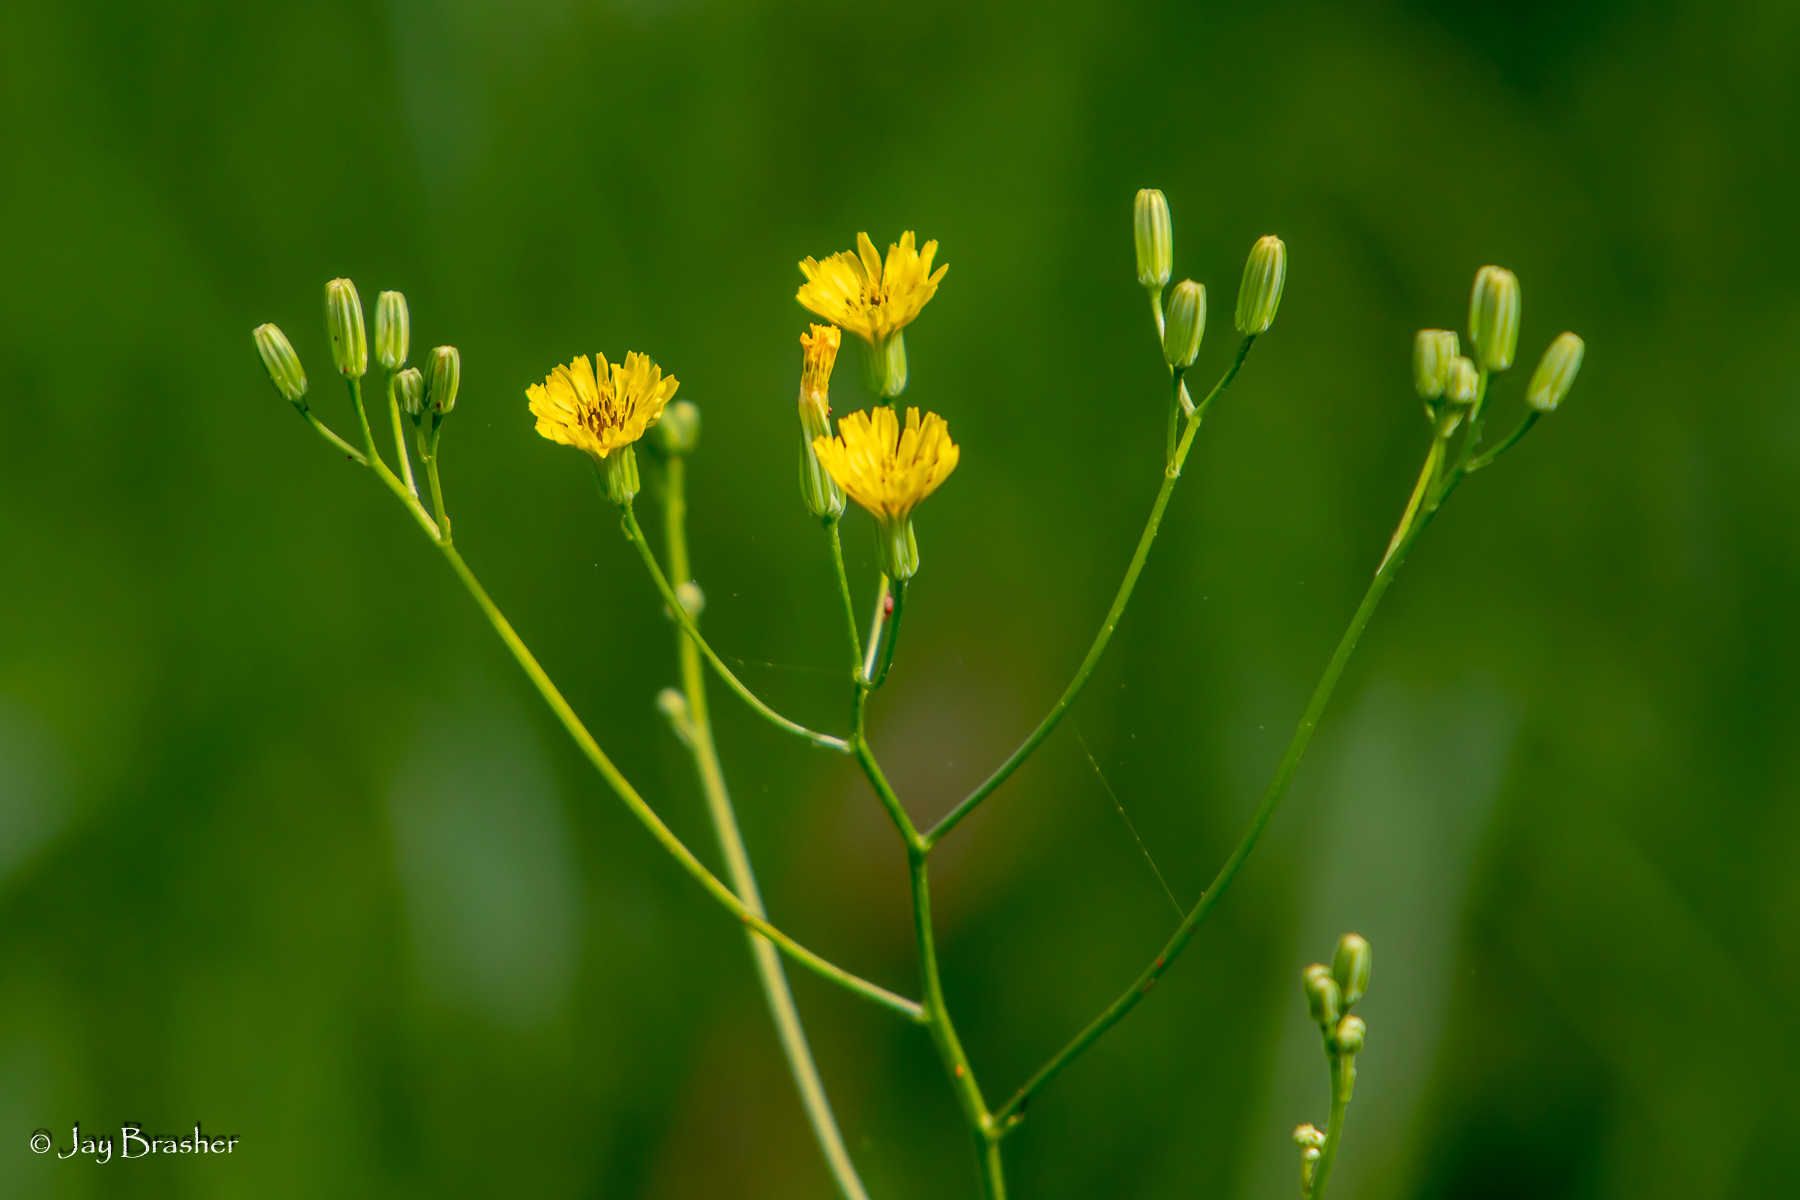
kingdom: Plantae
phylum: Tracheophyta
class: Magnoliopsida
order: Asterales
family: Asteraceae
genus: Crepis
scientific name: Crepis pulchra
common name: Hawk's-beard
